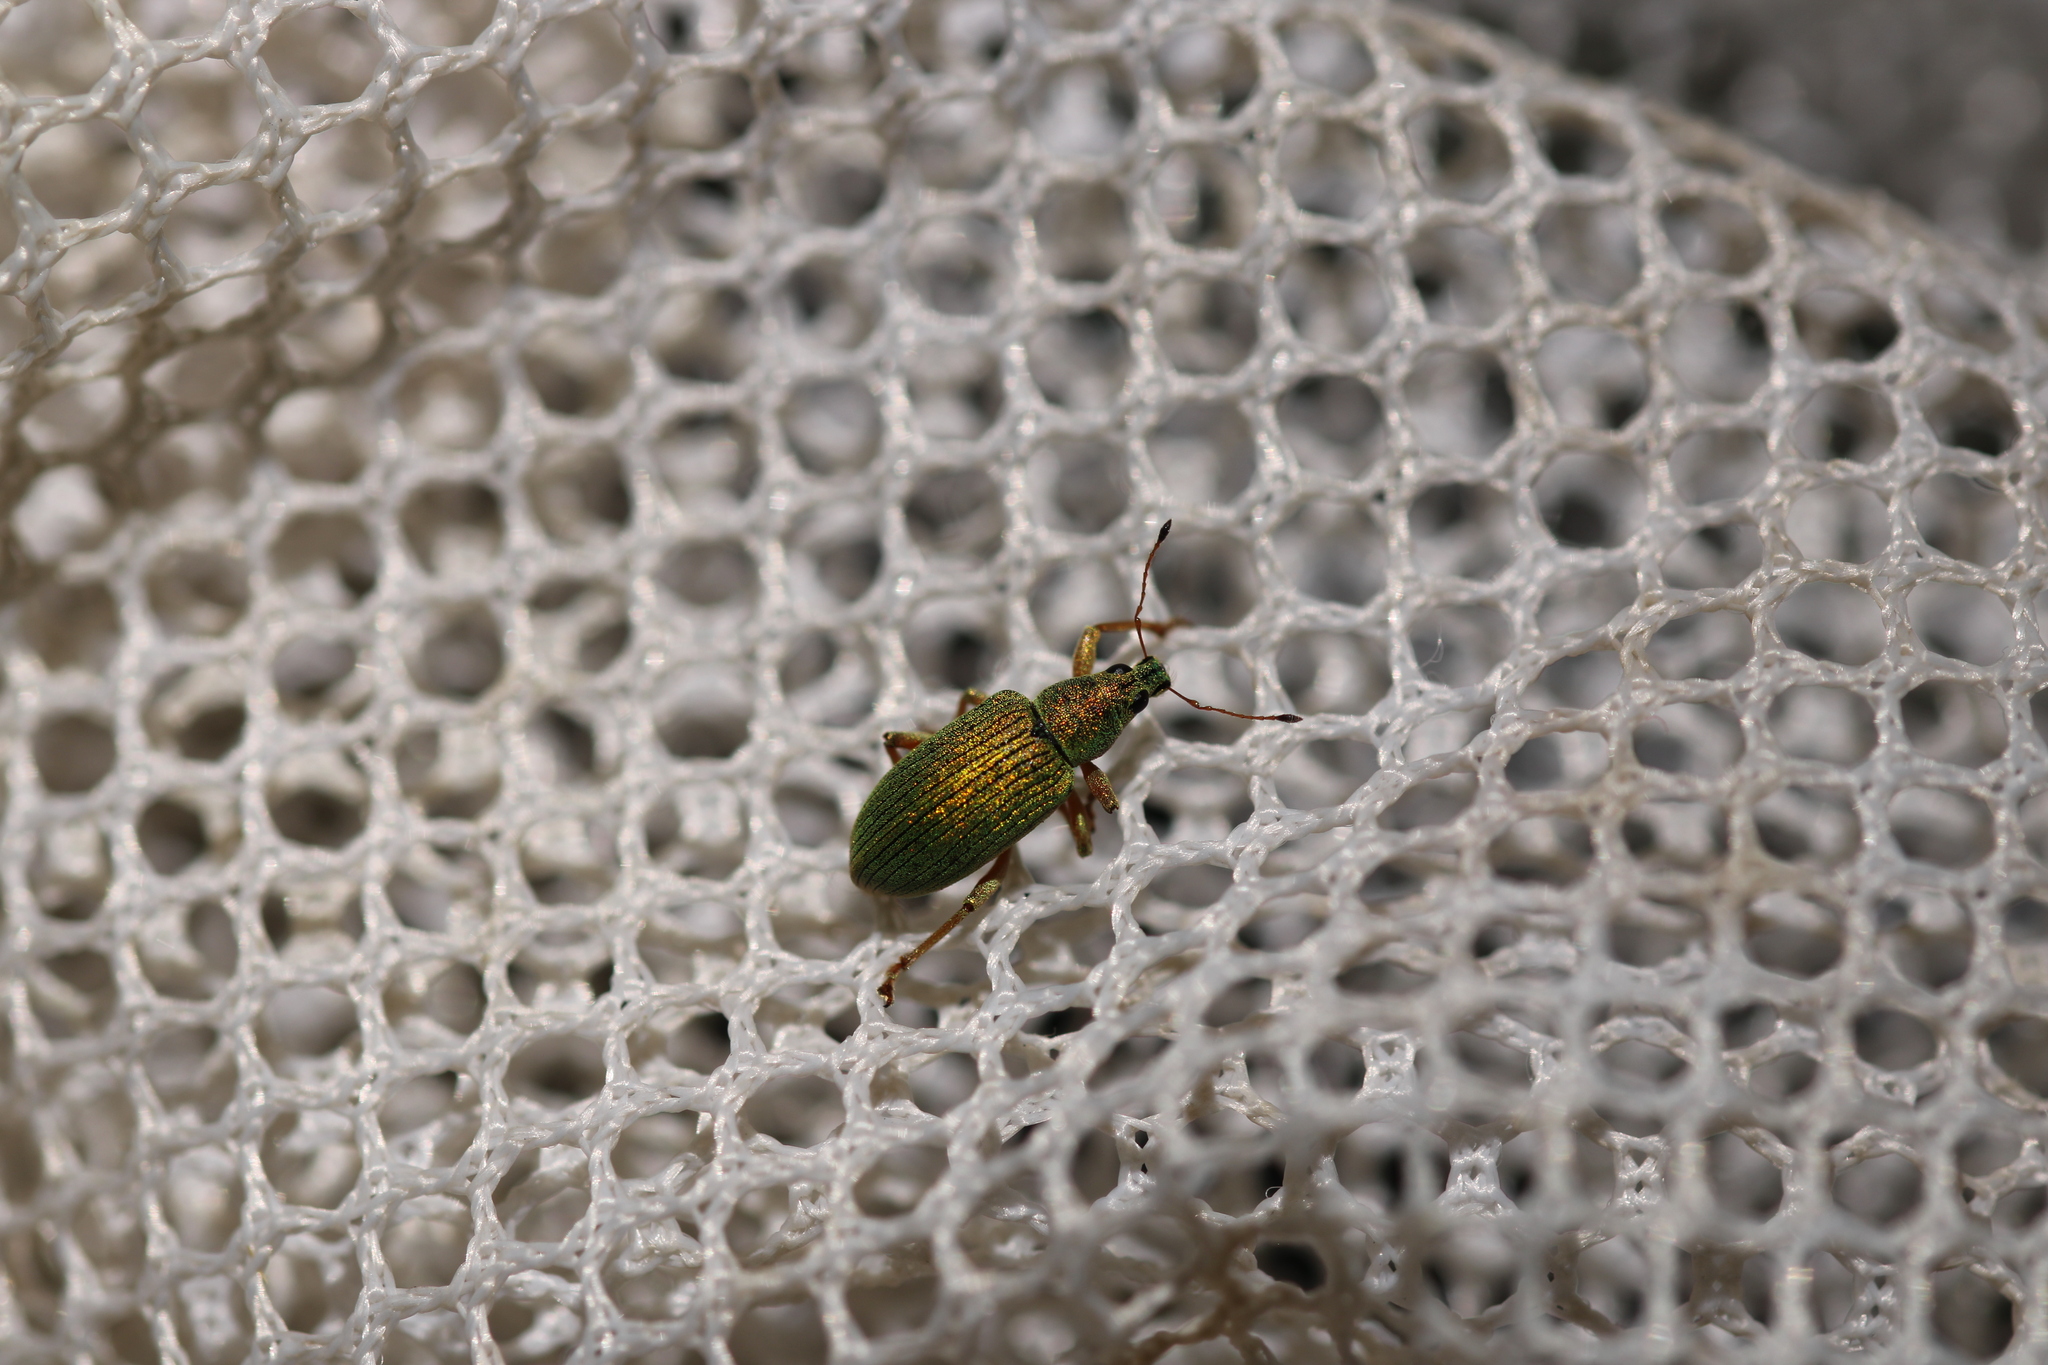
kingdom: Animalia
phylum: Arthropoda
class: Insecta
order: Coleoptera
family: Curculionidae
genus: Polydrusus
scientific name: Polydrusus formosus
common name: Weevil
